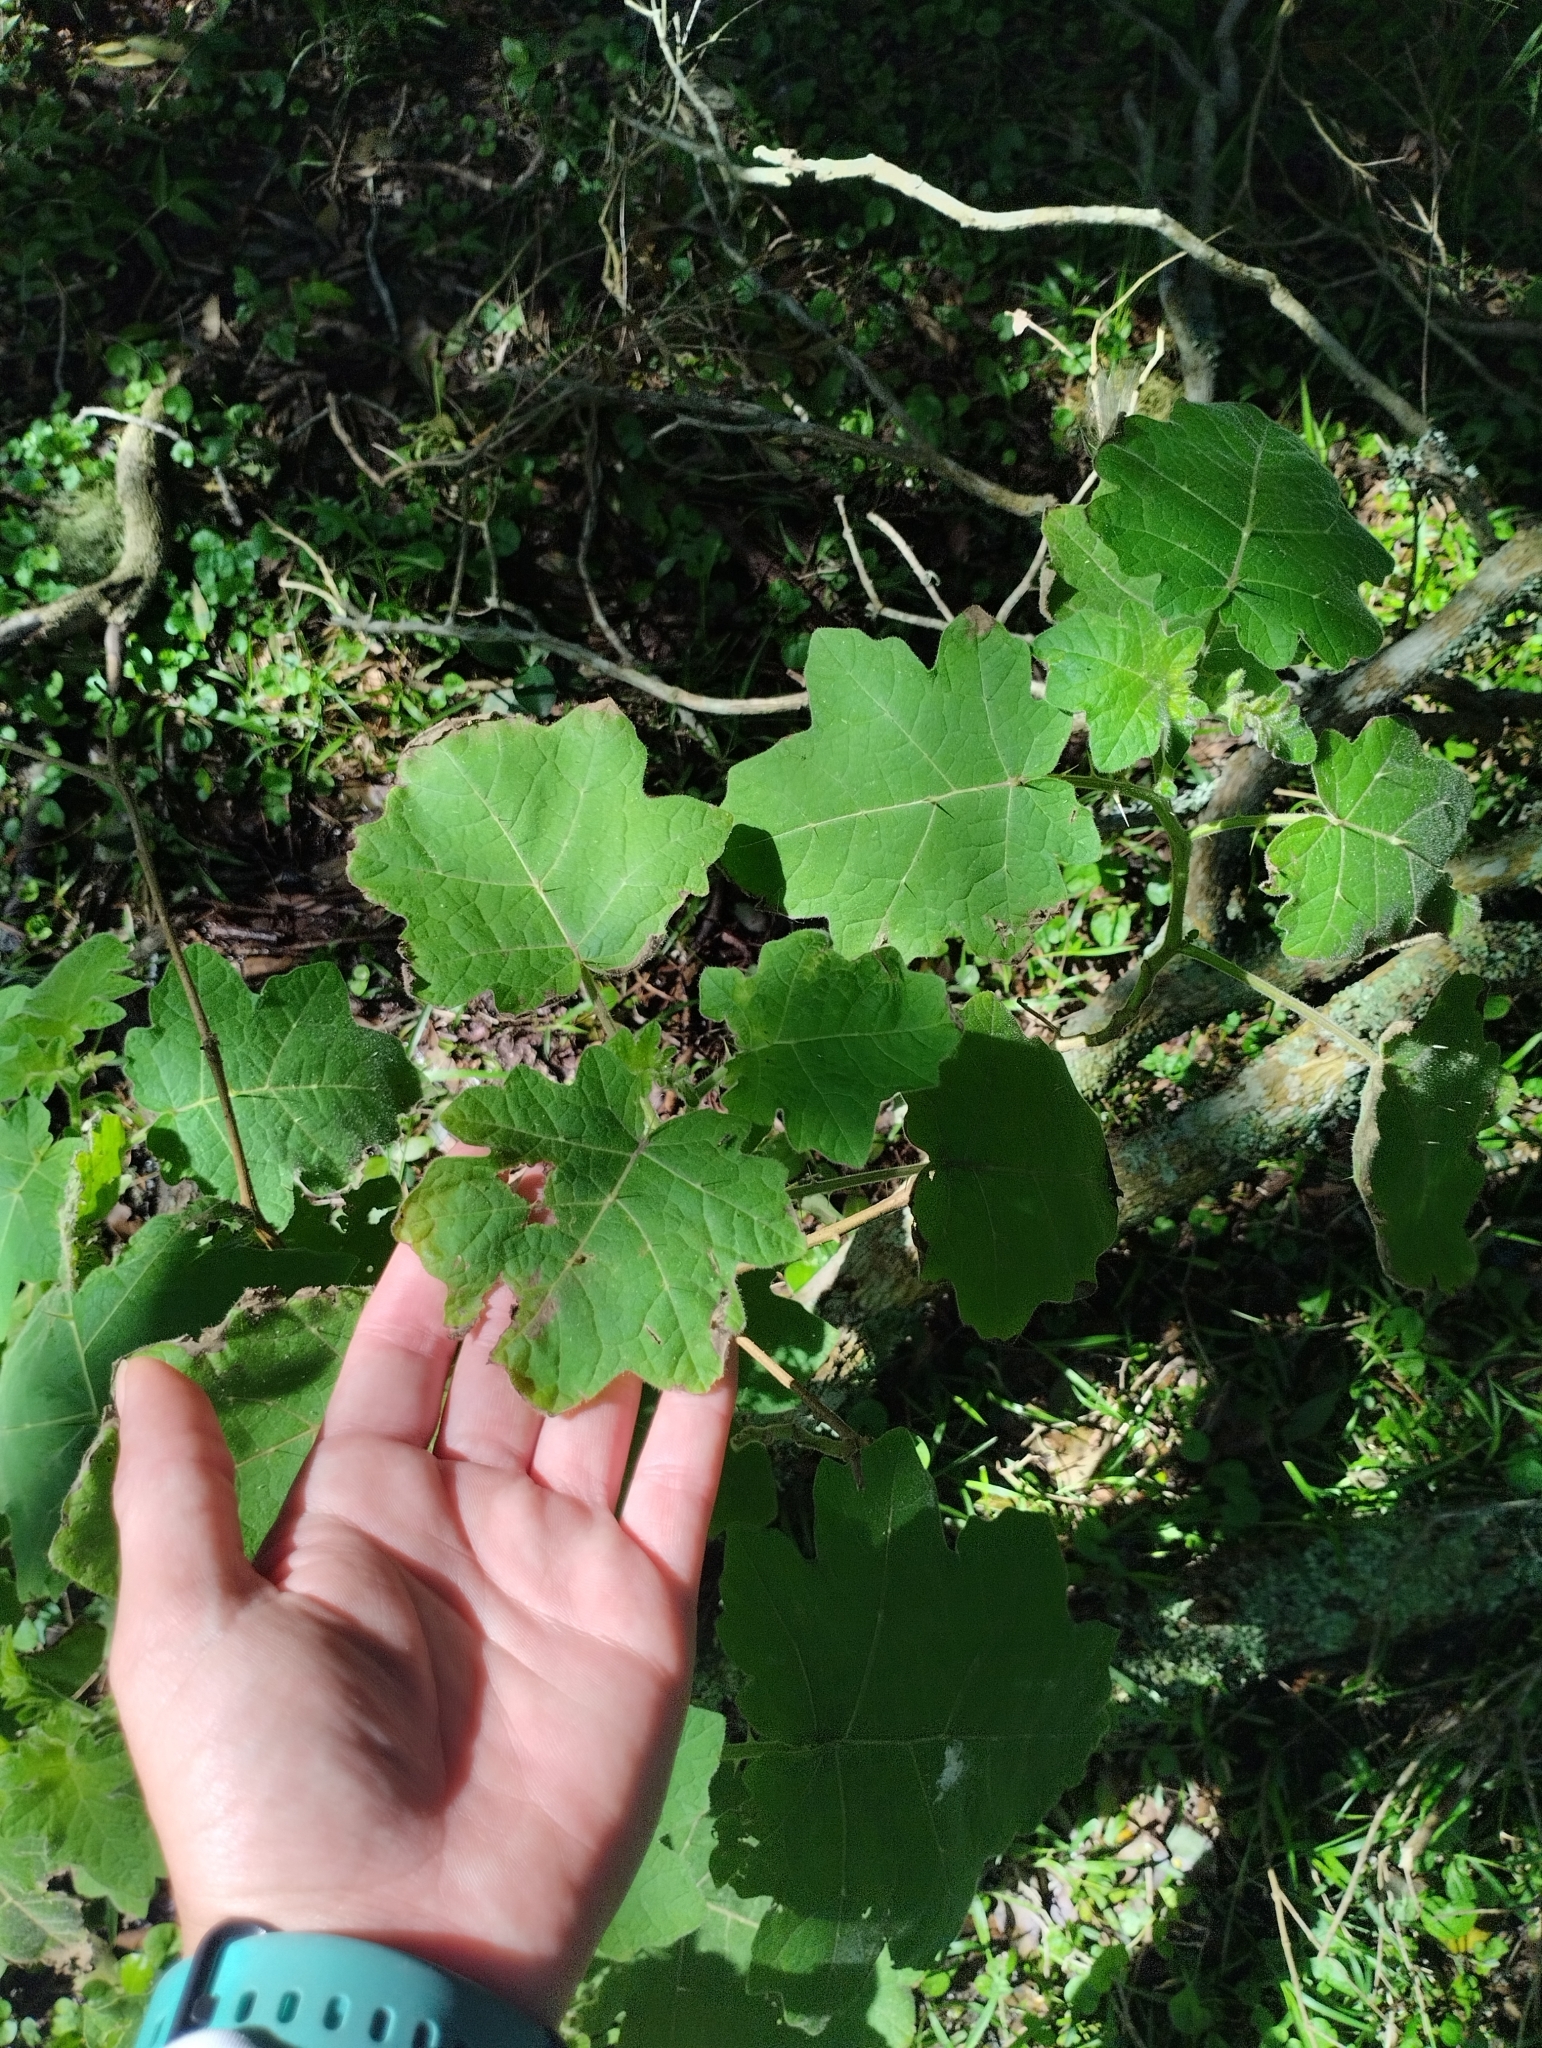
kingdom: Plantae
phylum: Tracheophyta
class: Magnoliopsida
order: Solanales
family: Solanaceae
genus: Solanum
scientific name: Solanum viarum
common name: Tropical soda apple
